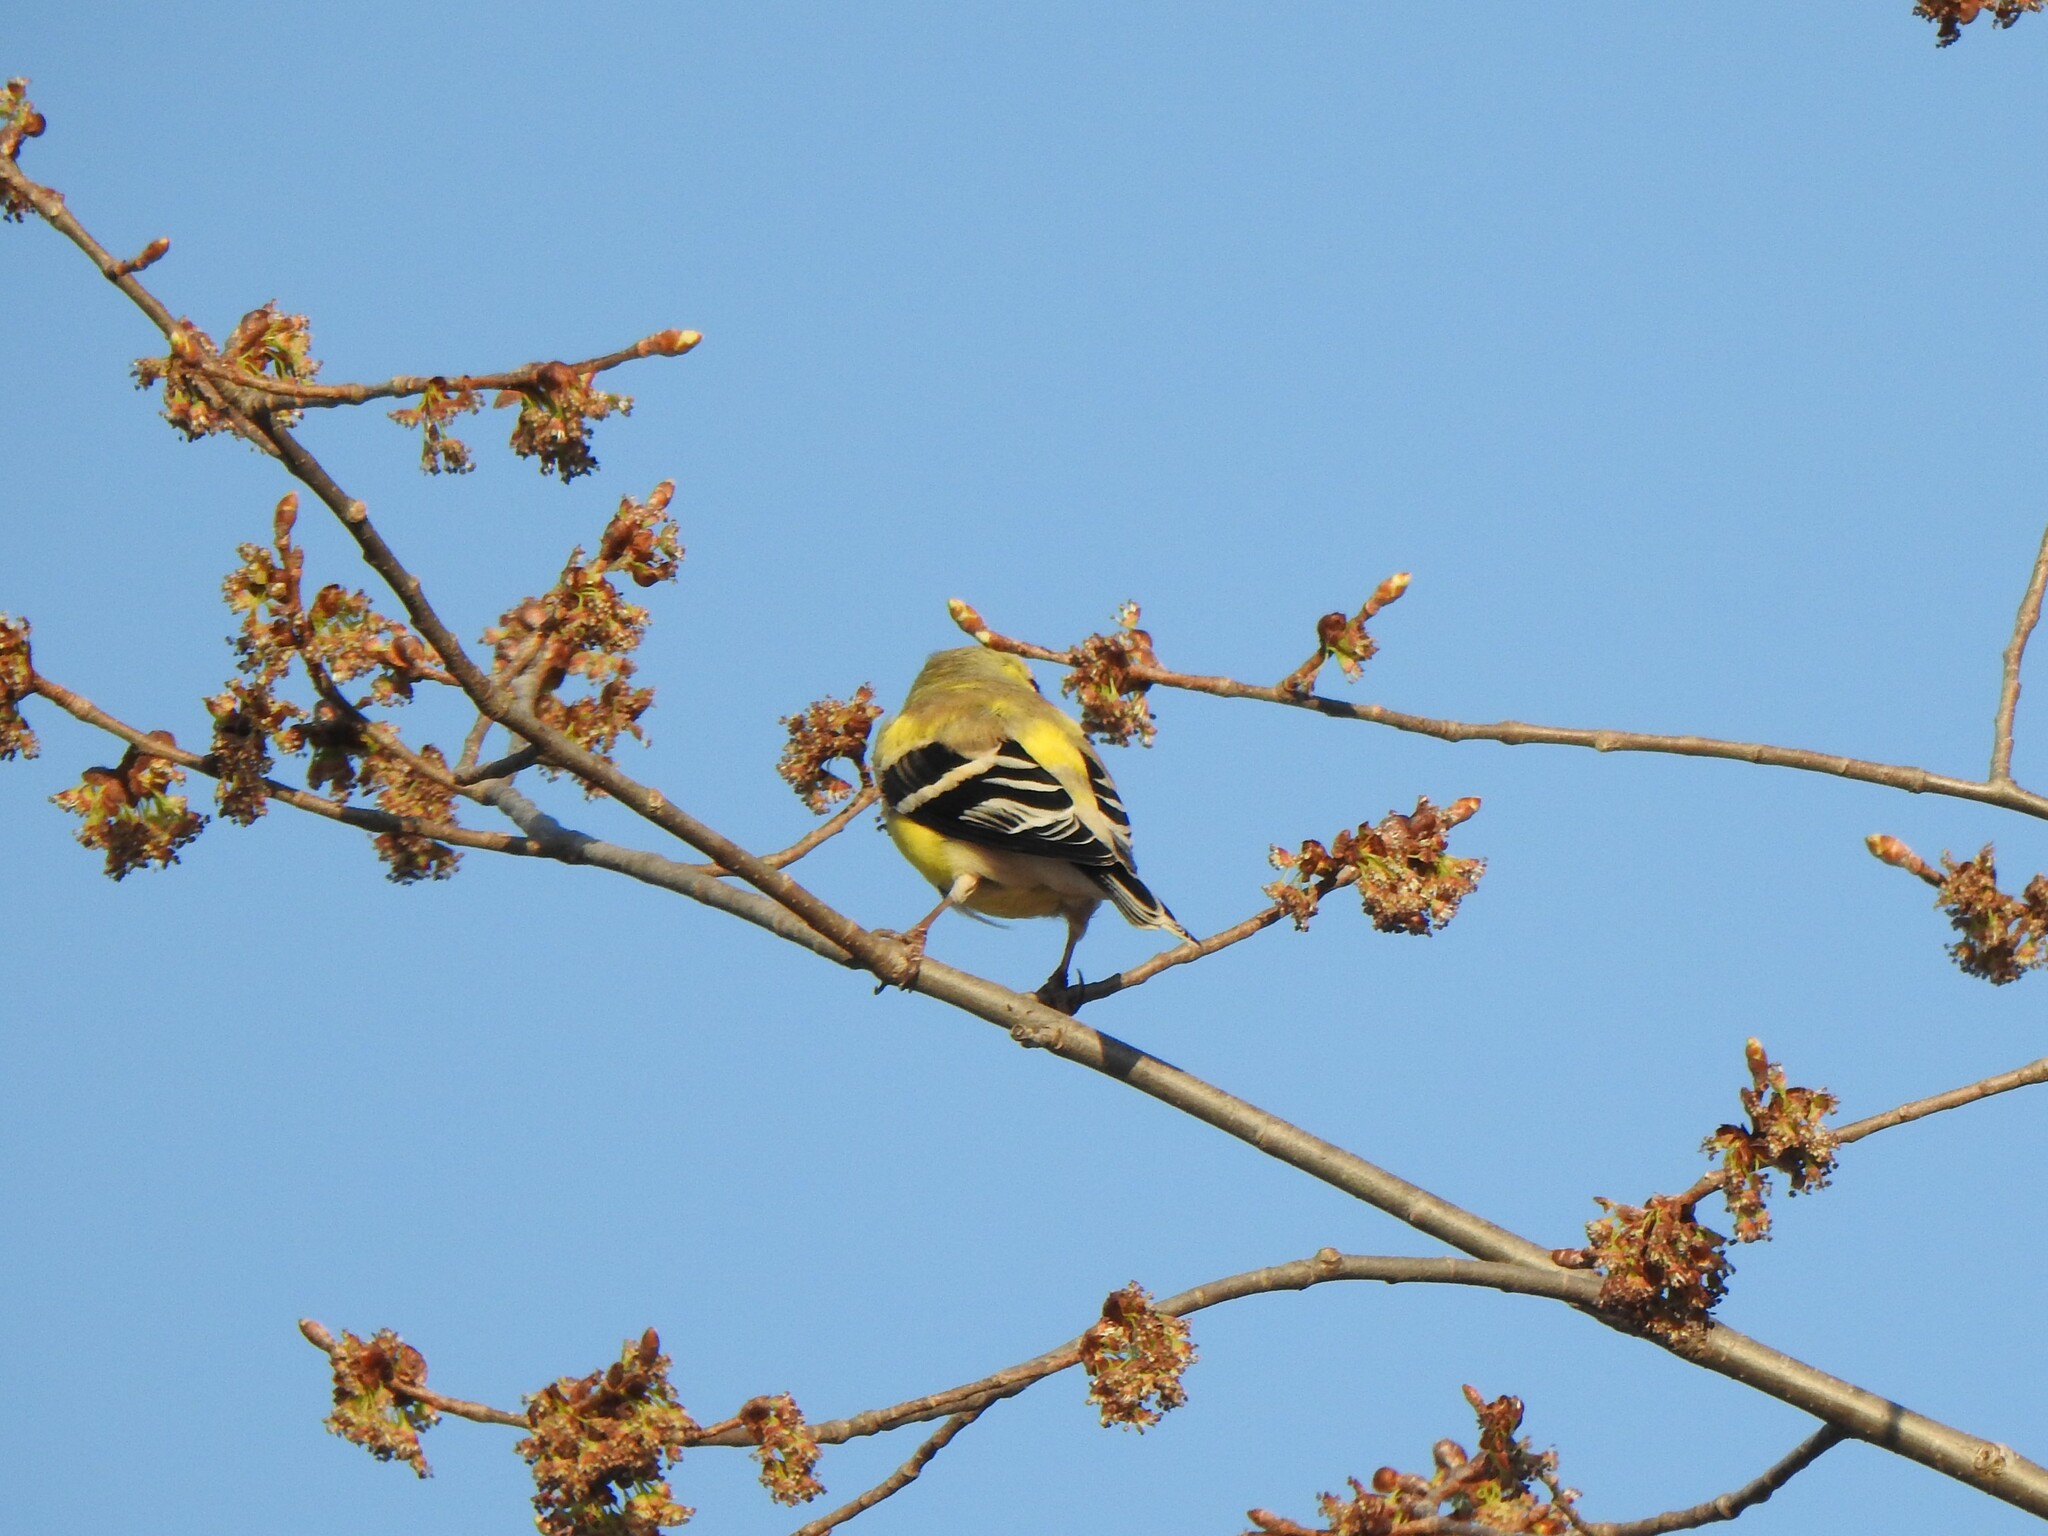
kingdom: Animalia
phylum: Chordata
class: Aves
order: Passeriformes
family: Fringillidae
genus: Spinus
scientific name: Spinus tristis
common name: American goldfinch
